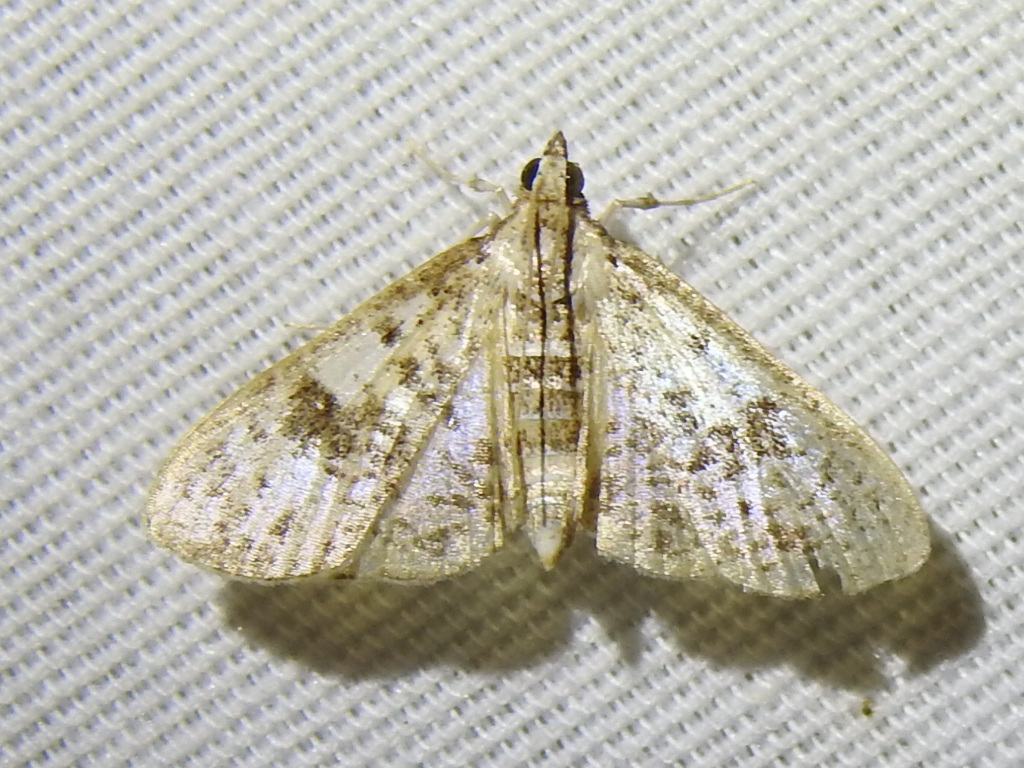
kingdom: Animalia
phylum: Arthropoda
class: Insecta
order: Lepidoptera
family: Crambidae
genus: Palpita
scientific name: Palpita magniferalis
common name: Splendid palpita moth
